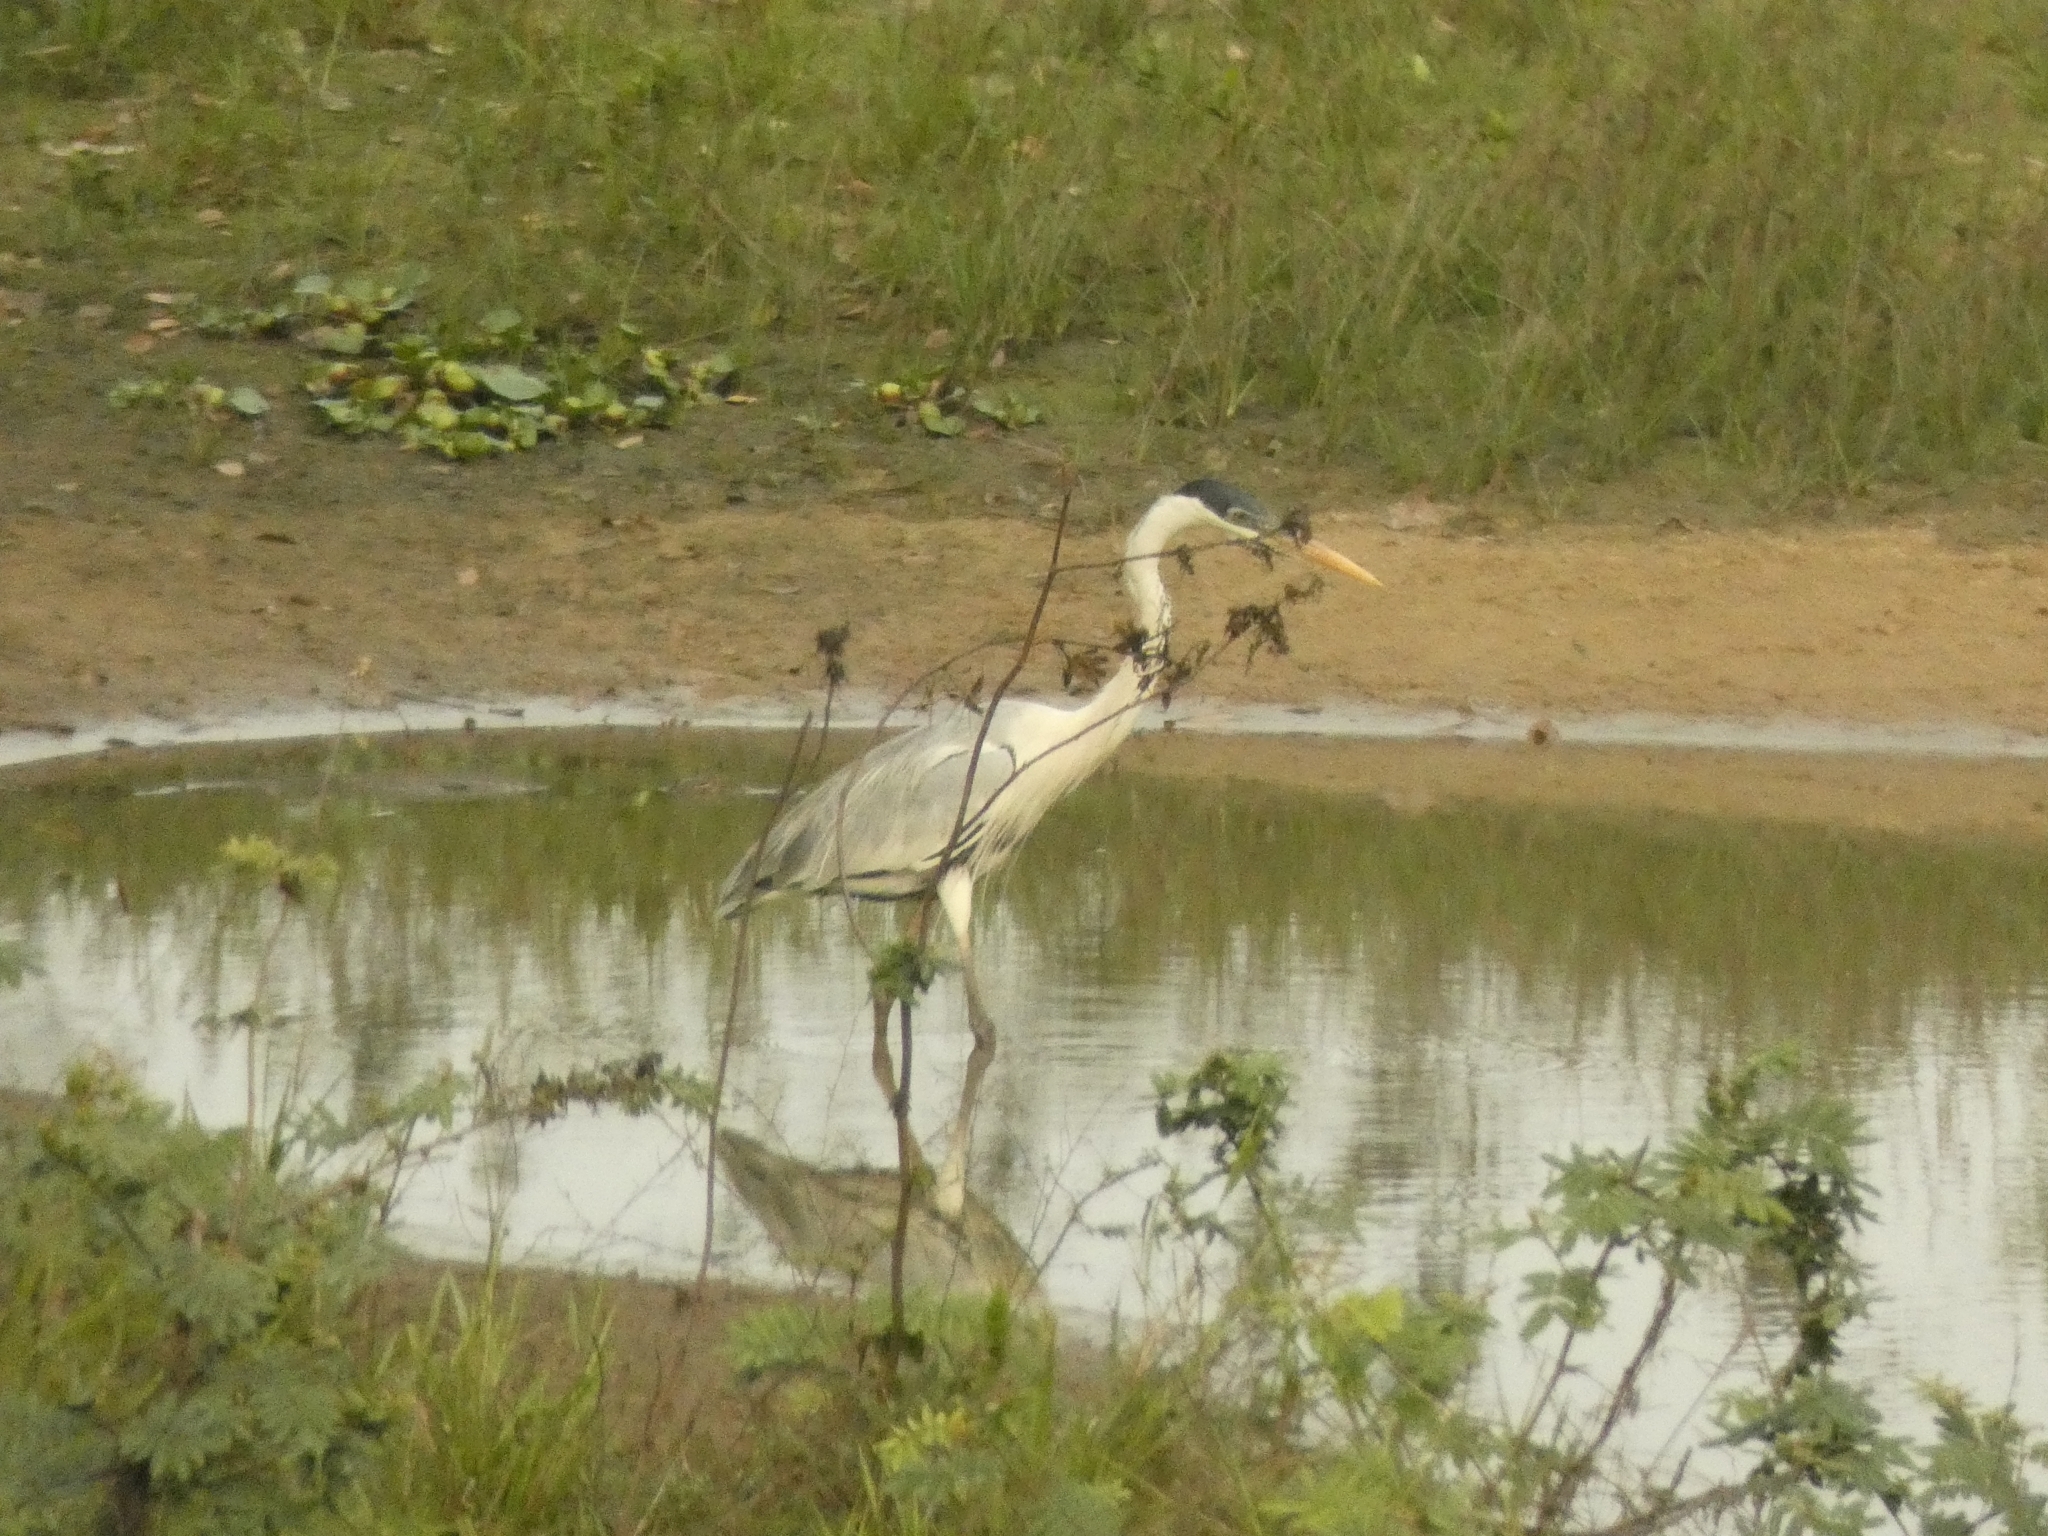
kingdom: Animalia
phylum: Chordata
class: Aves
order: Pelecaniformes
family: Ardeidae
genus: Ardea
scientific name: Ardea cocoi
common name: Cocoi heron
